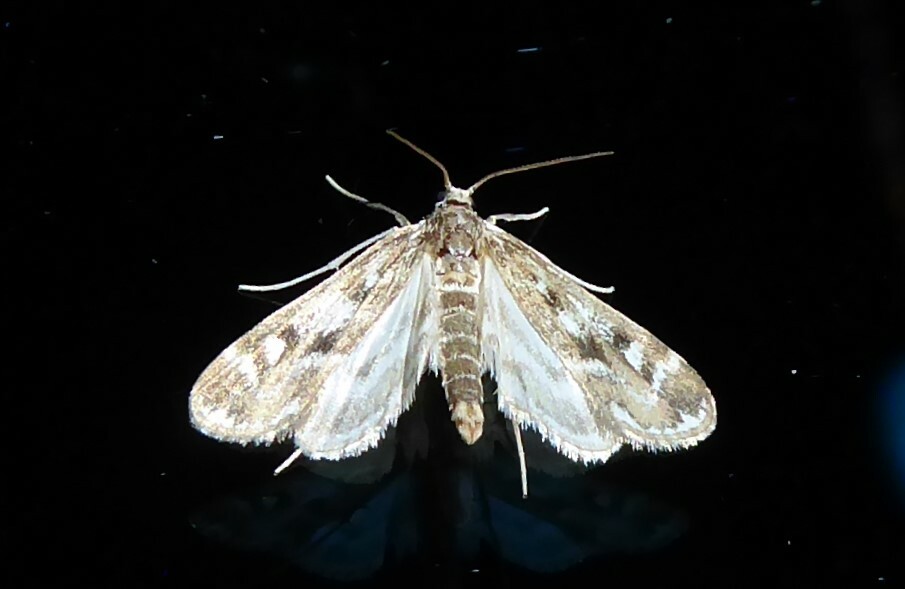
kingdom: Animalia
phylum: Arthropoda
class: Insecta
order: Lepidoptera
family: Crambidae
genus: Hygraula
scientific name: Hygraula nitens
